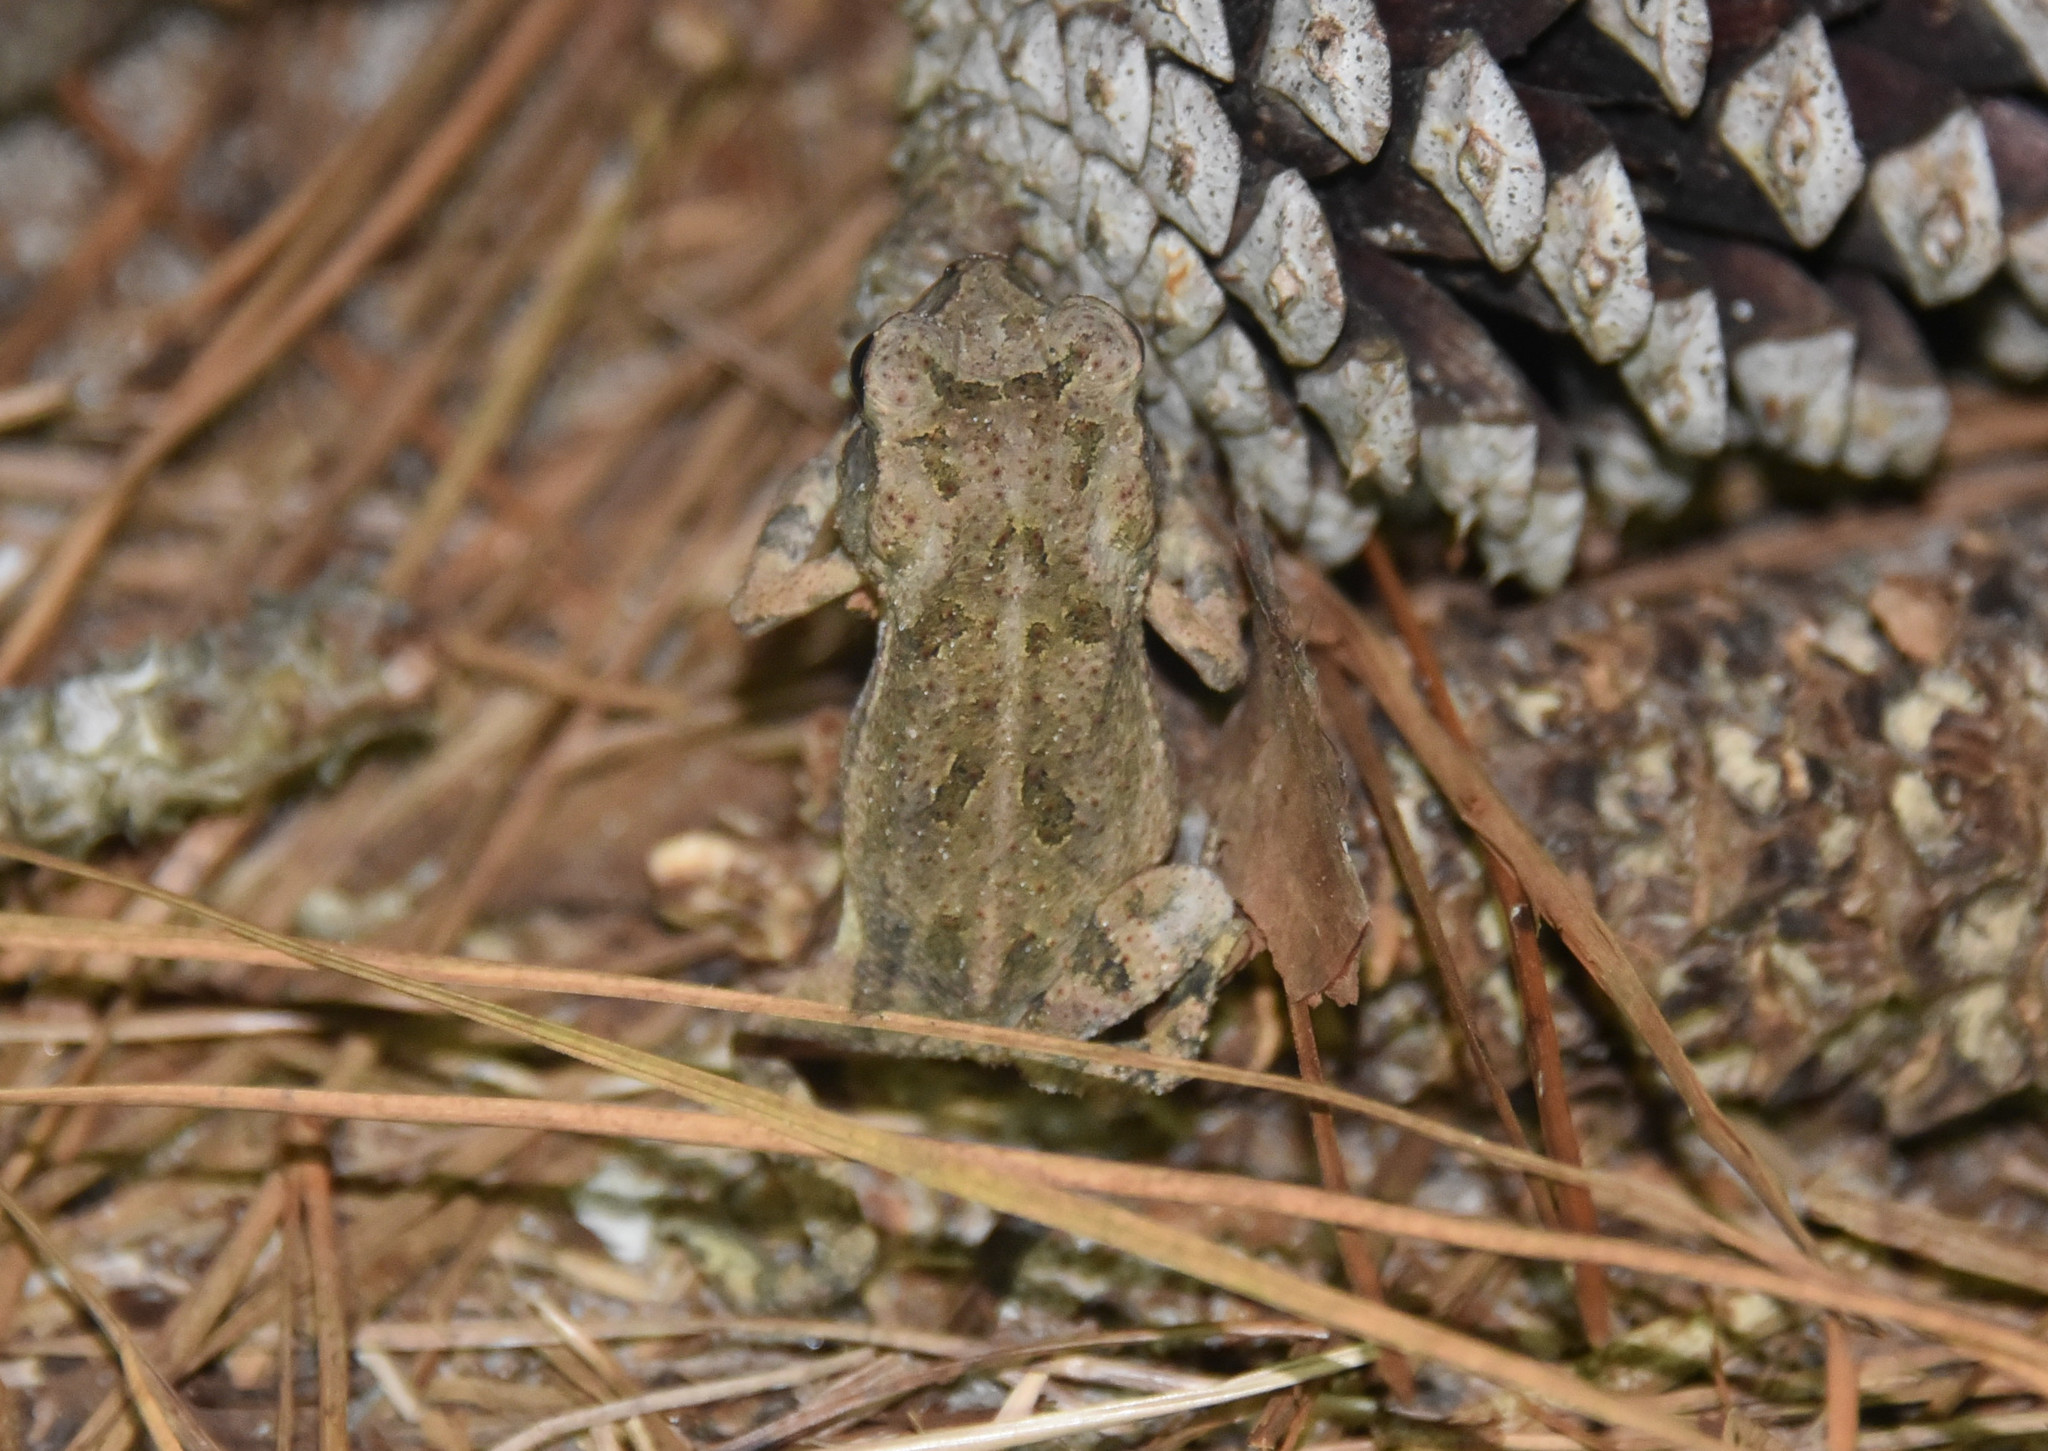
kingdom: Animalia
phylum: Chordata
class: Amphibia
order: Anura
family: Bufonidae
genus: Incilius
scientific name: Incilius nebulifer
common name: Gulf coast toad
